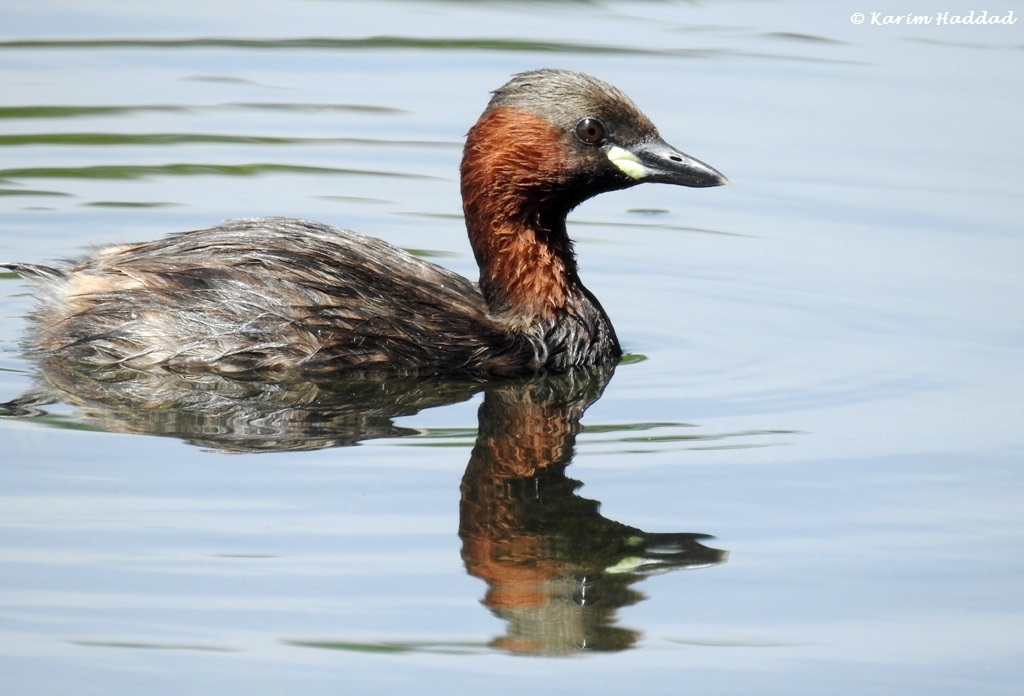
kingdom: Animalia
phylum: Chordata
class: Aves
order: Podicipediformes
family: Podicipedidae
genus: Tachybaptus
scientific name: Tachybaptus ruficollis
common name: Little grebe
